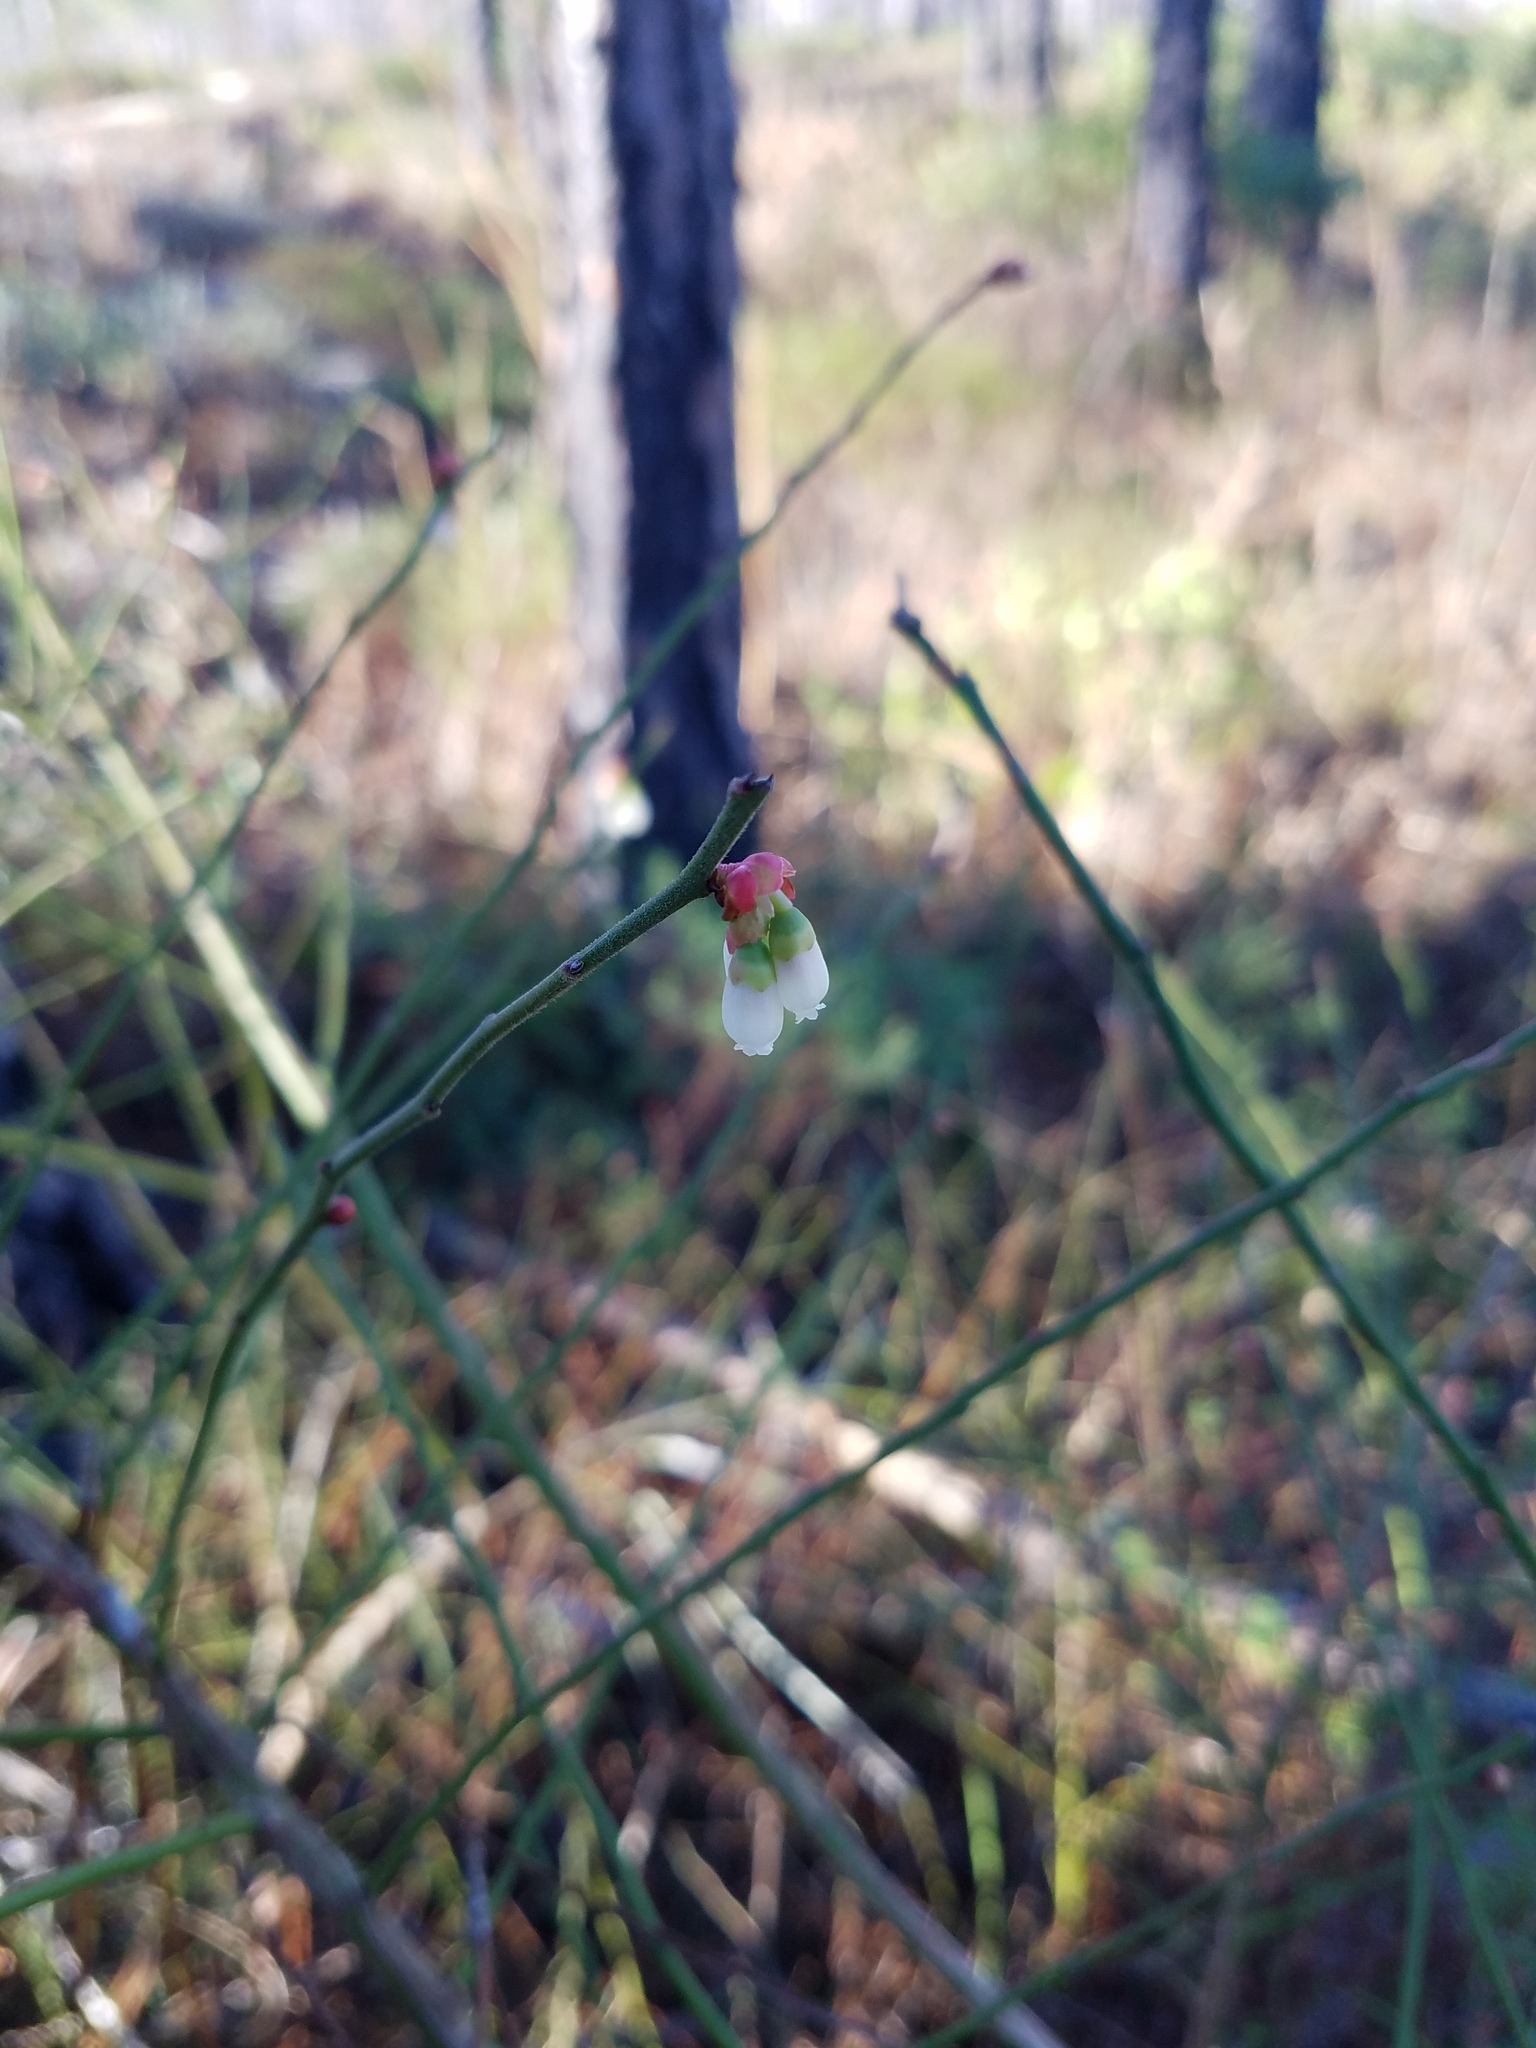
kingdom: Plantae
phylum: Tracheophyta
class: Magnoliopsida
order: Ericales
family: Ericaceae
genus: Vaccinium
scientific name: Vaccinium corymbosum
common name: Blueberry
